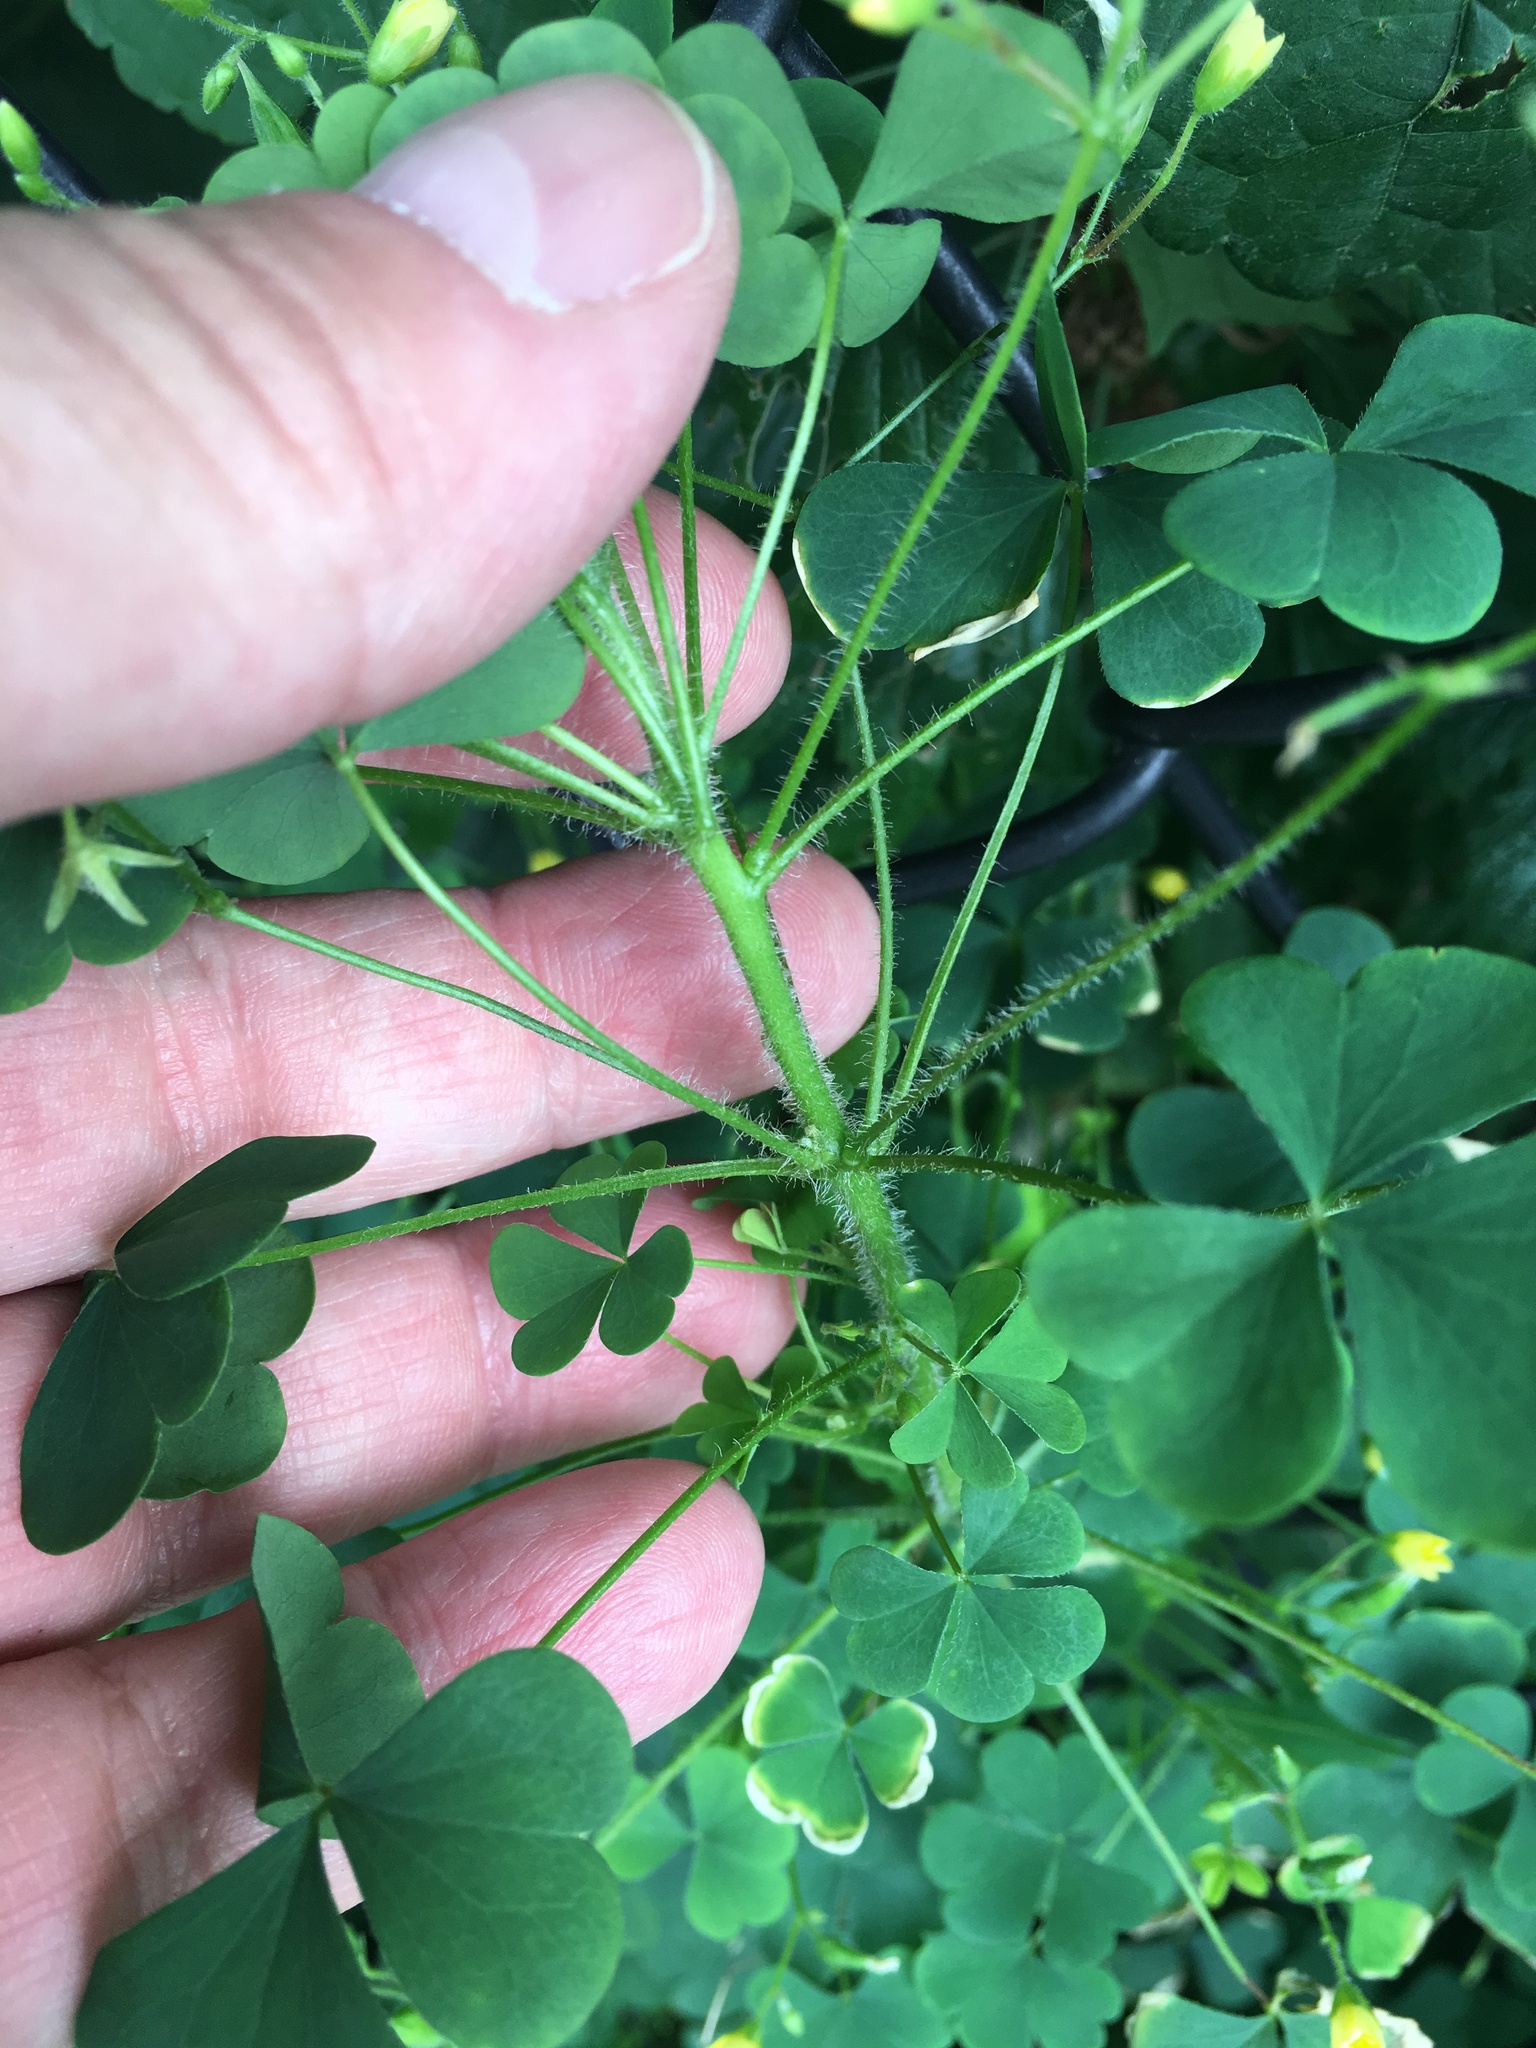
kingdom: Plantae
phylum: Tracheophyta
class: Magnoliopsida
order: Oxalidales
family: Oxalidaceae
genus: Oxalis
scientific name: Oxalis stricta
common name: Upright yellow-sorrel
